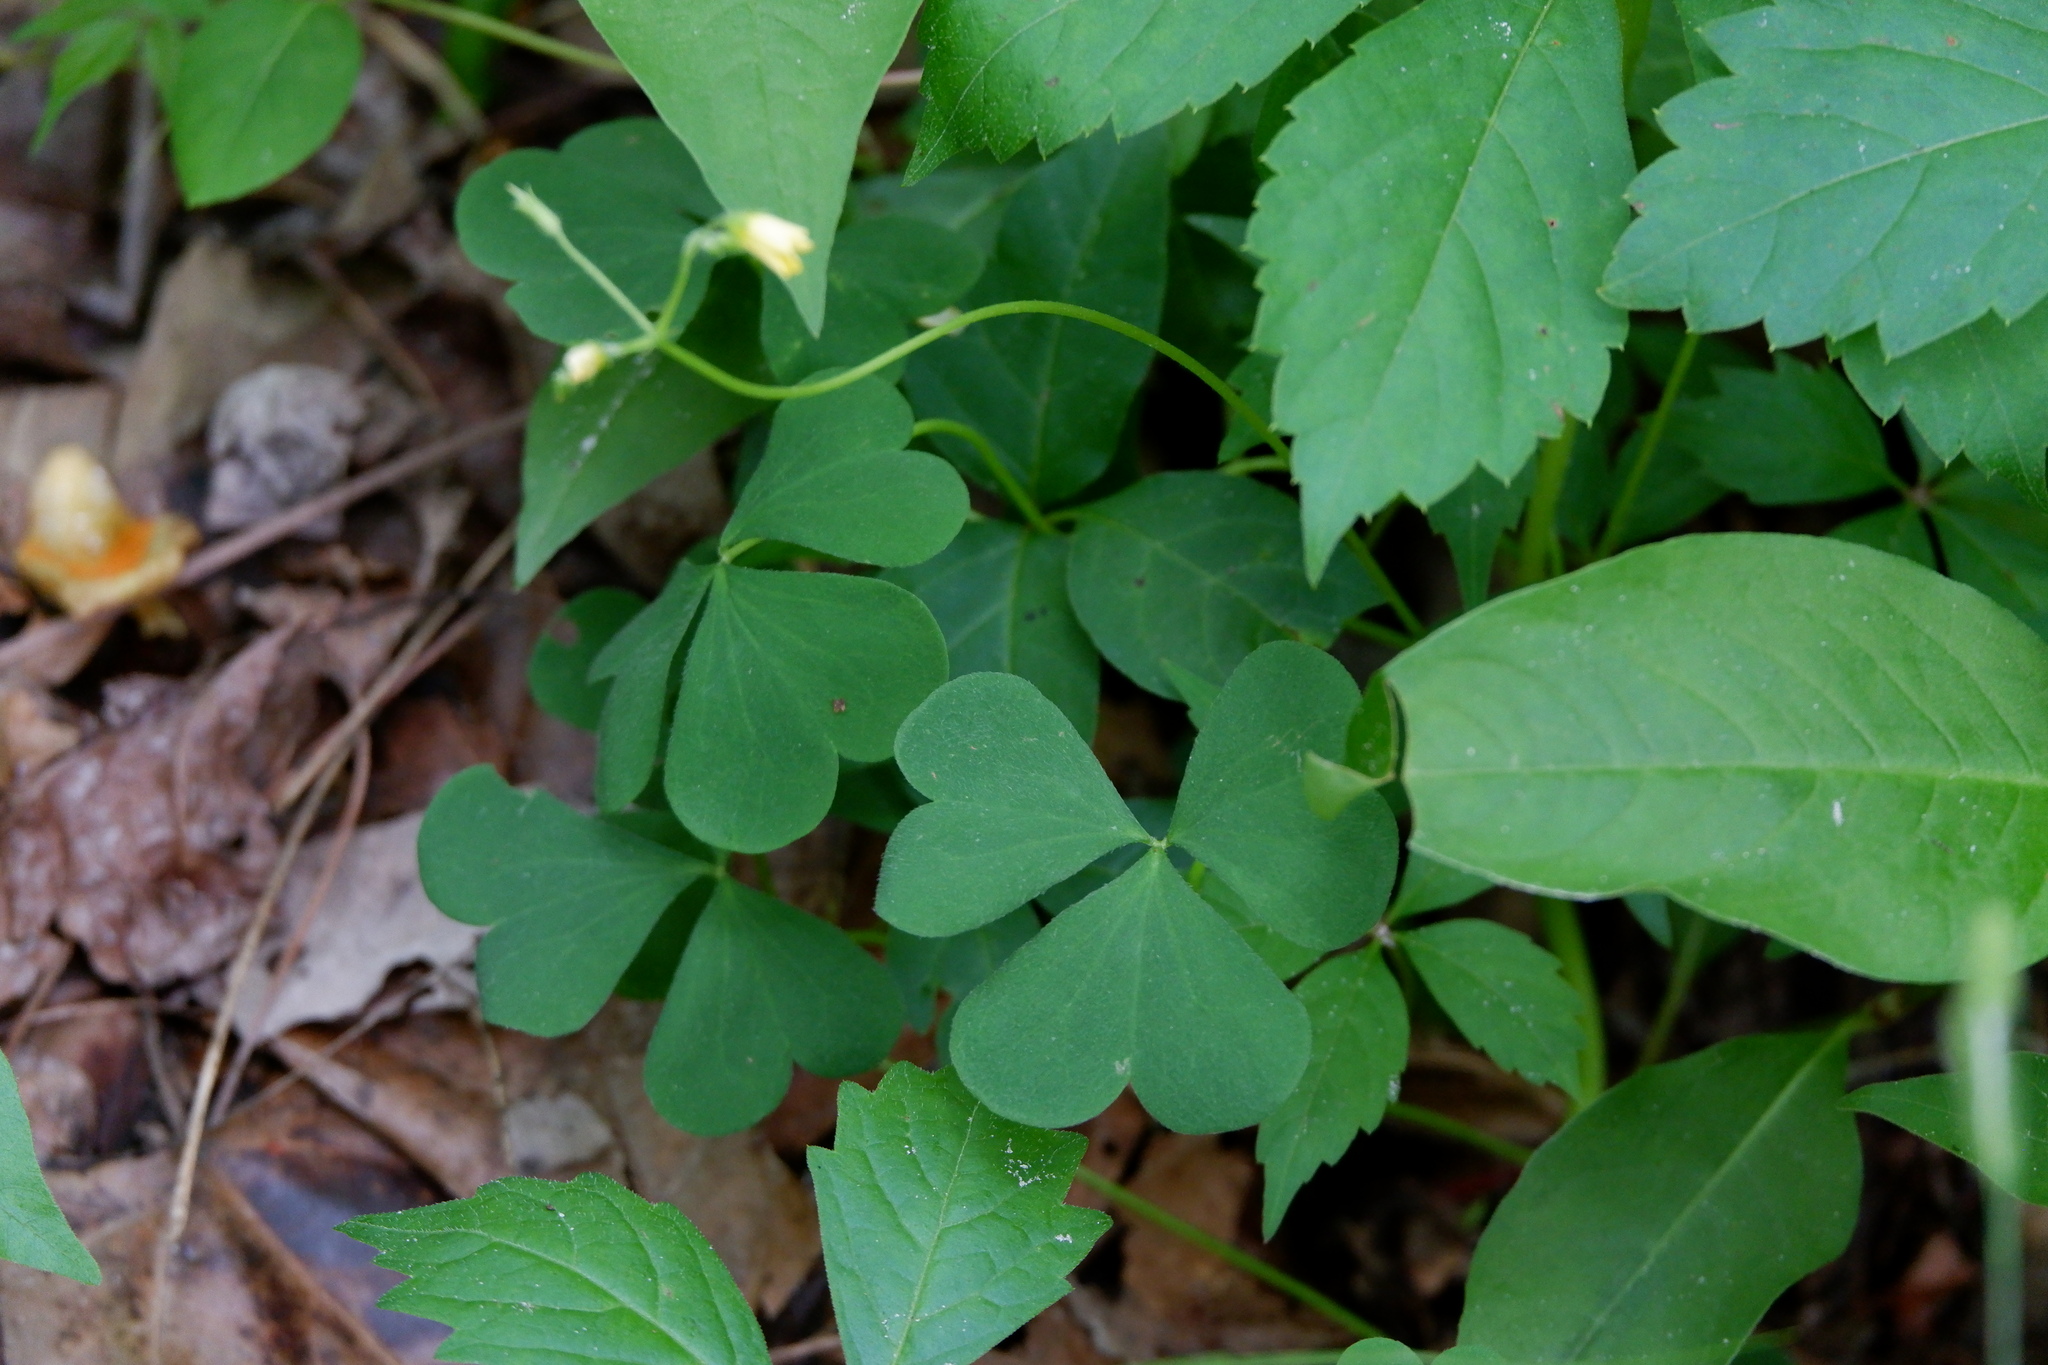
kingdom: Plantae
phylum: Tracheophyta
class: Magnoliopsida
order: Oxalidales
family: Oxalidaceae
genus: Oxalis
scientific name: Oxalis dillenii
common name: Sussex yellow-sorrel
